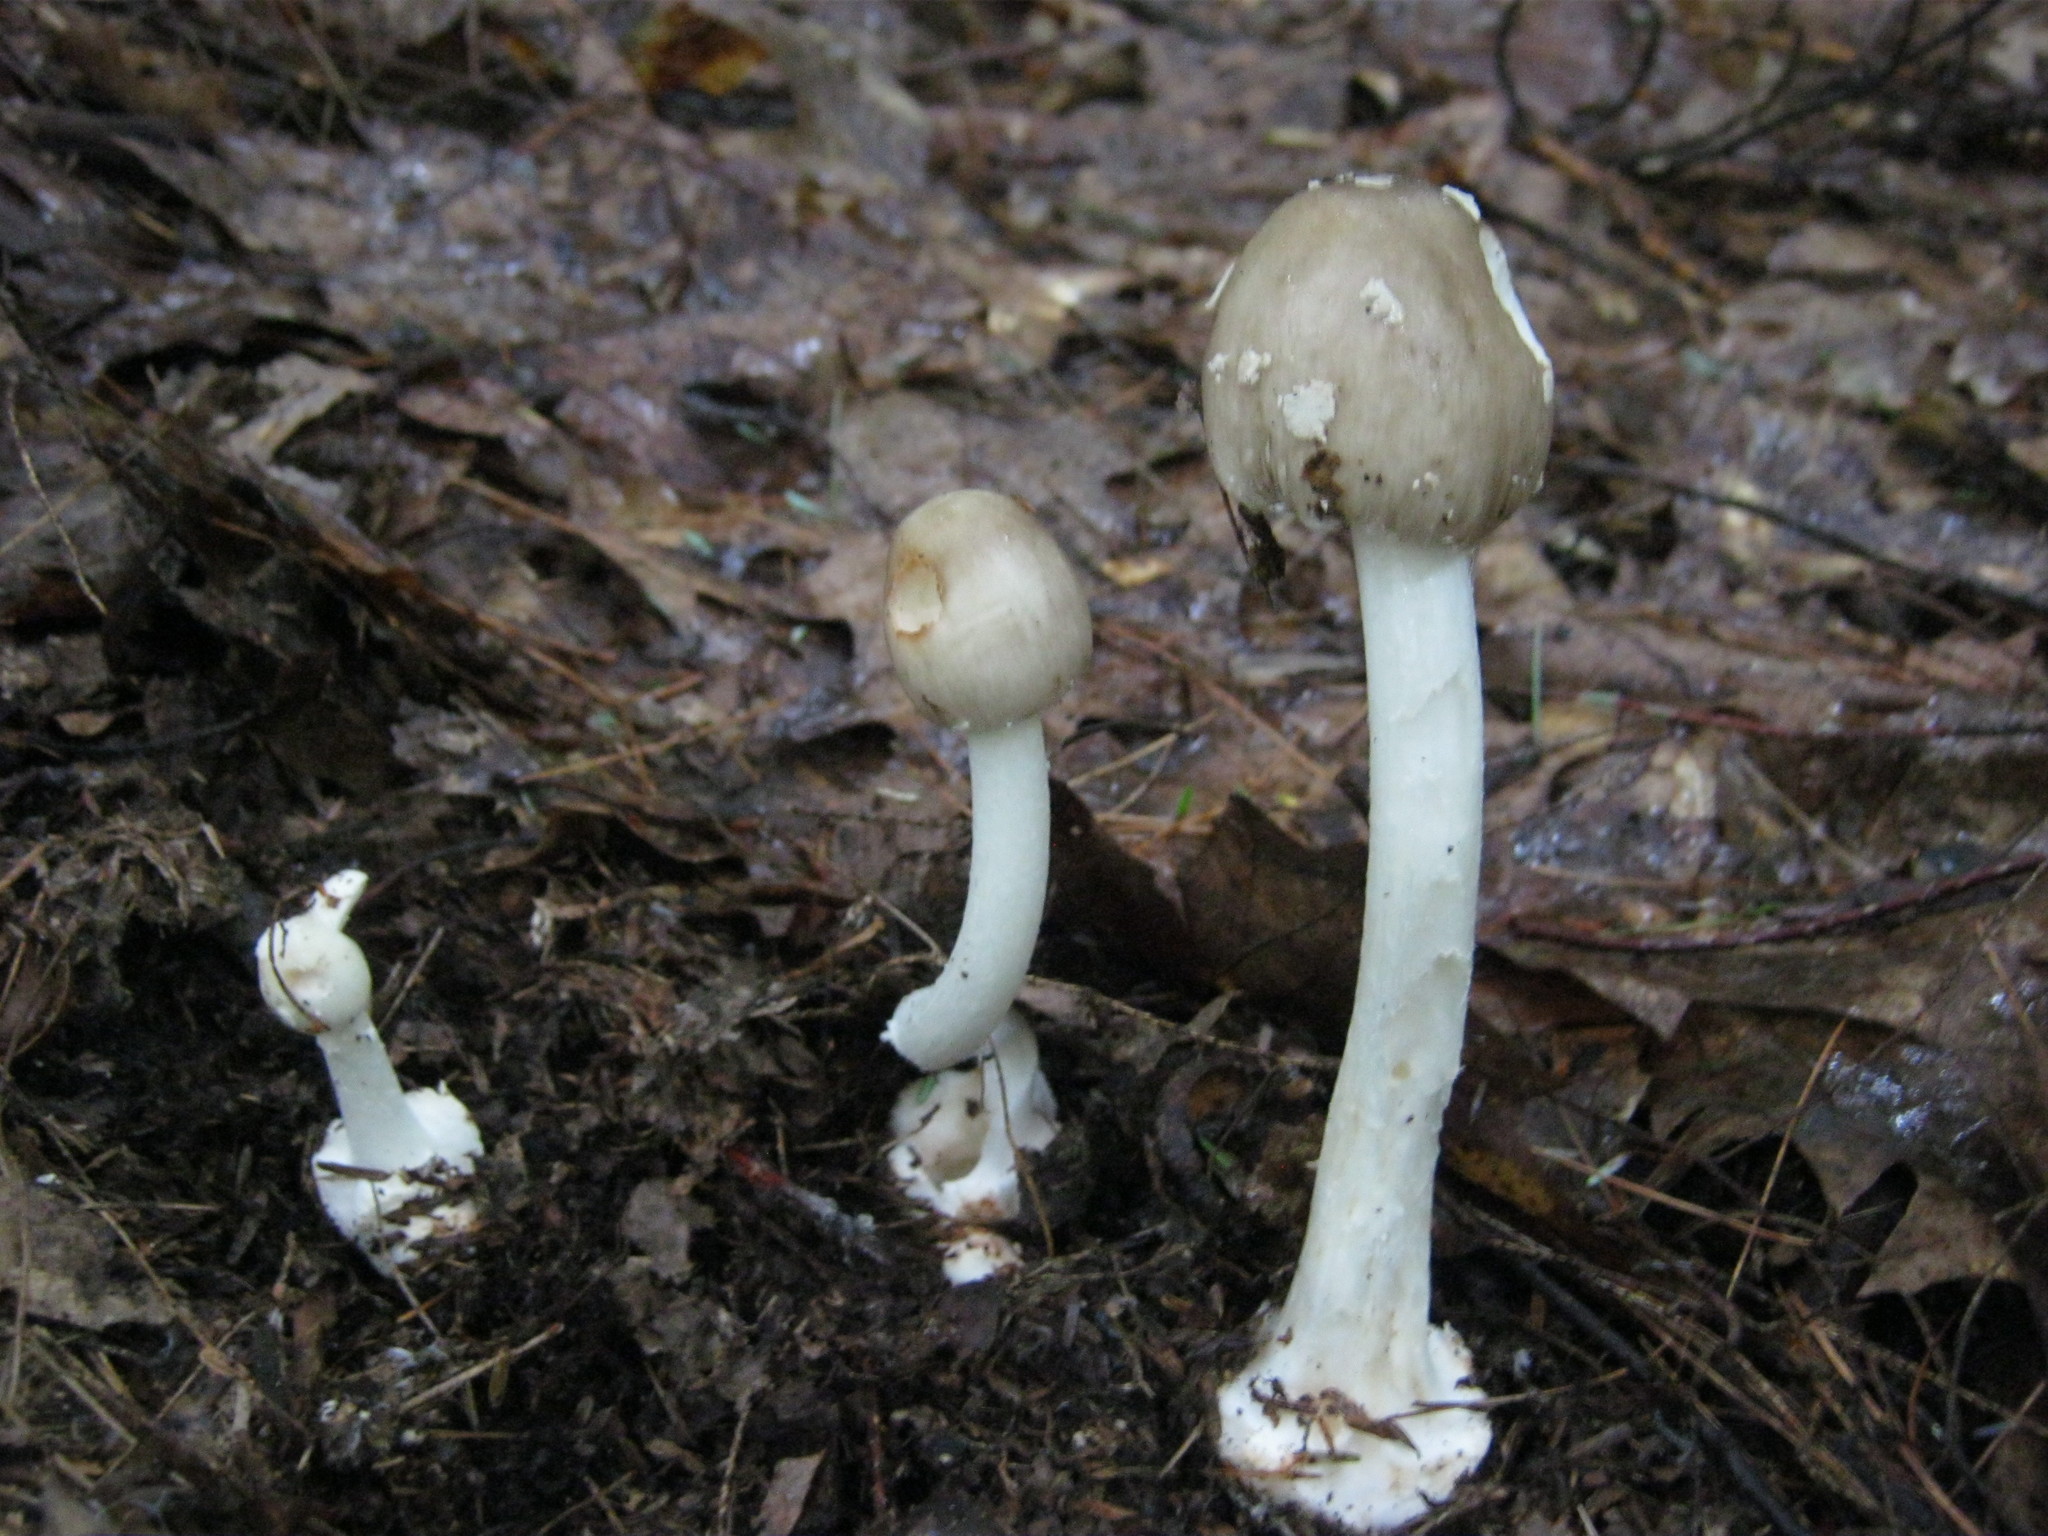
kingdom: Fungi
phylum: Basidiomycota
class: Agaricomycetes
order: Agaricales
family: Amanitaceae
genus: Amanita
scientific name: Amanita brunnescens
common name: Brown american star-footed amanita
